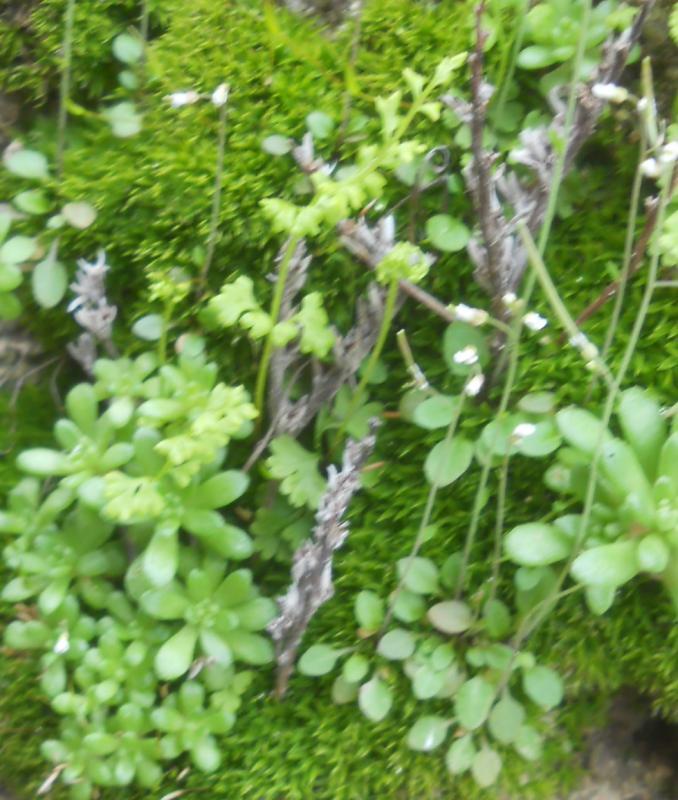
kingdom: Plantae
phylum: Tracheophyta
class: Magnoliopsida
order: Saxifragales
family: Crassulaceae
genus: Sedum
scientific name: Sedum album
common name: White stonecrop
